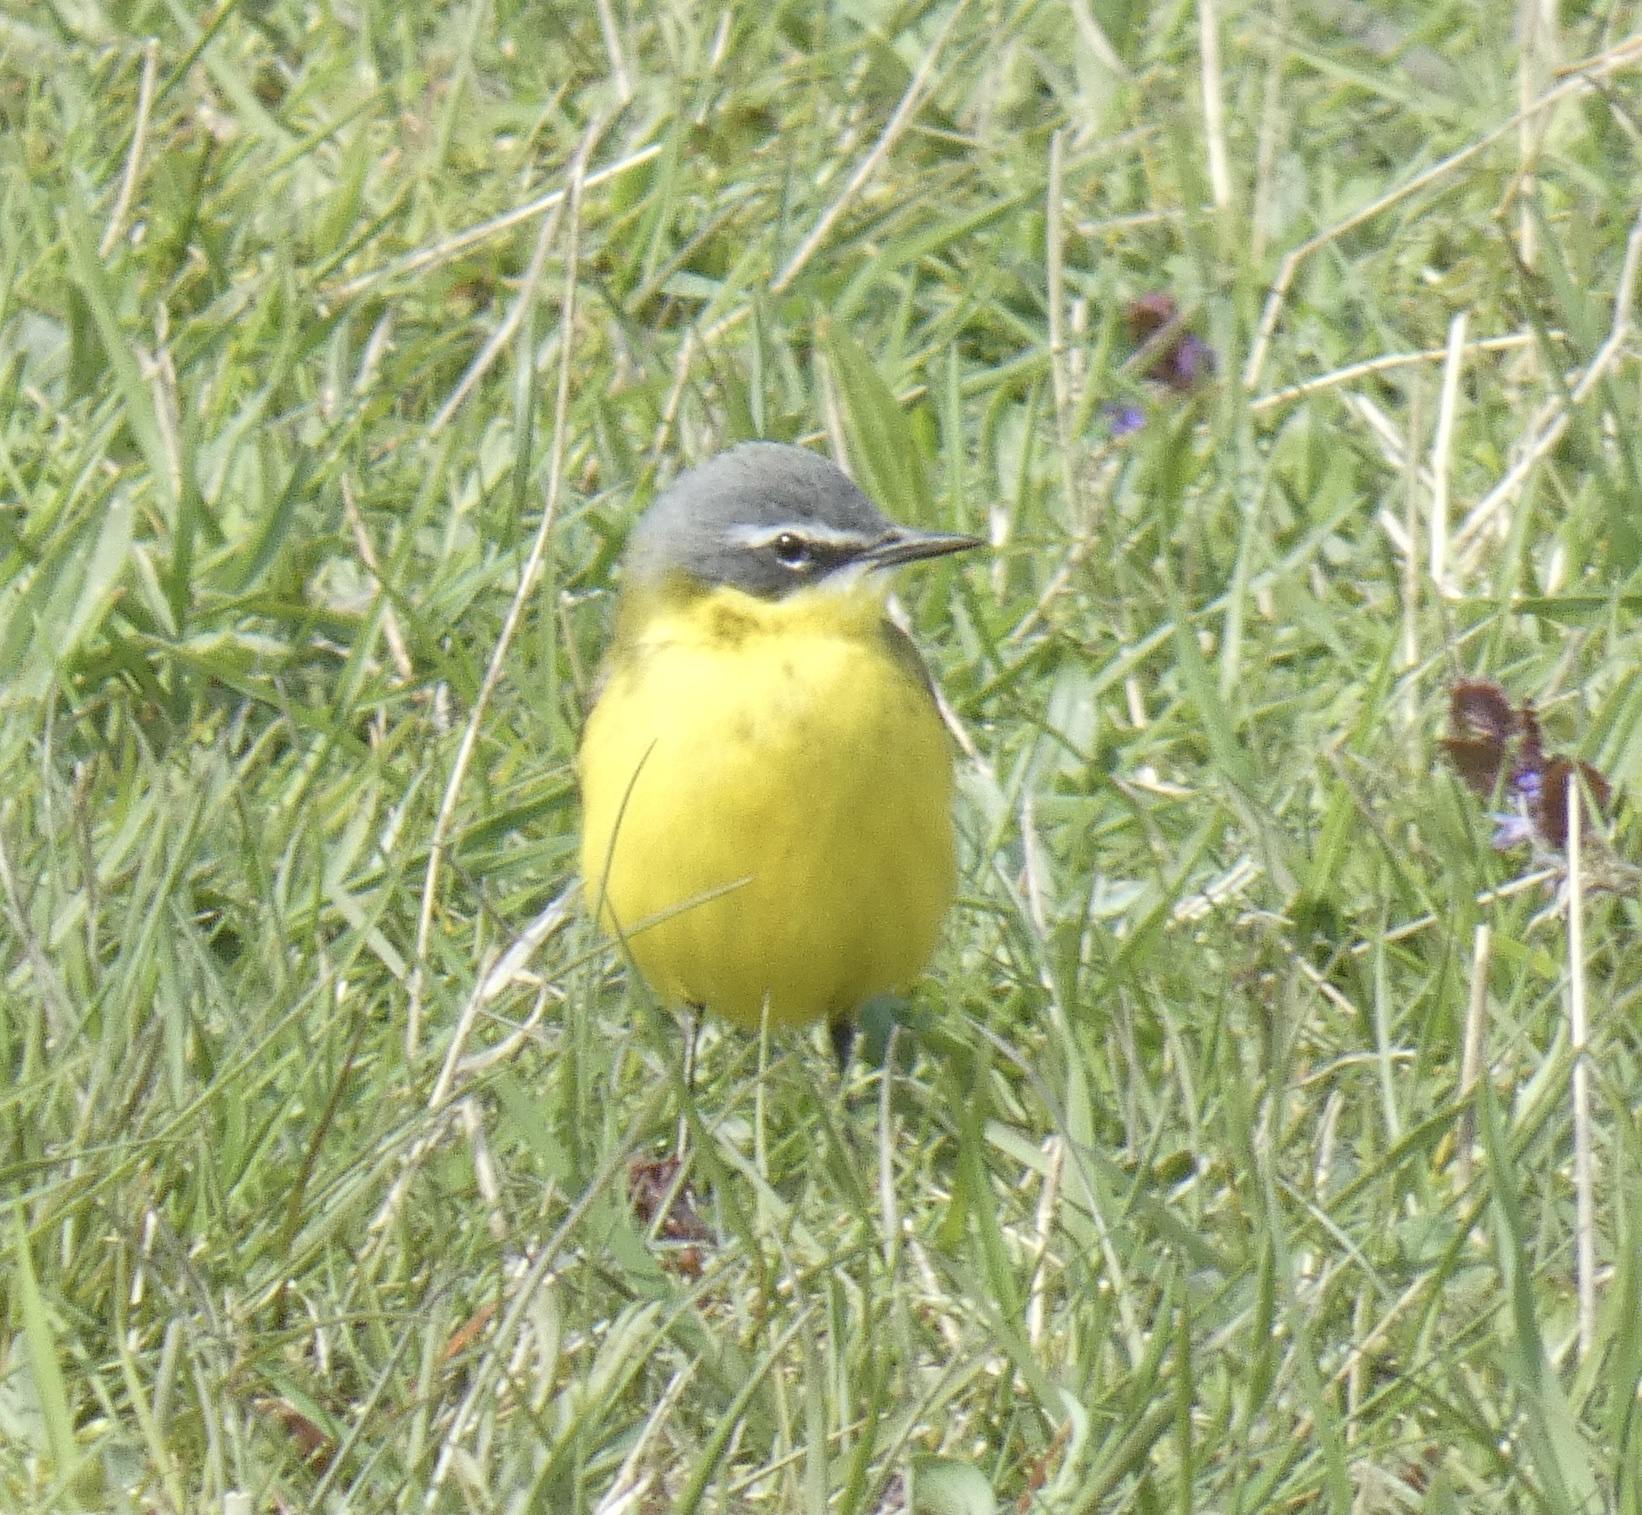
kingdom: Animalia
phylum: Chordata
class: Aves
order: Passeriformes
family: Motacillidae
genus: Motacilla
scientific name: Motacilla flava
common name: Western yellow wagtail
